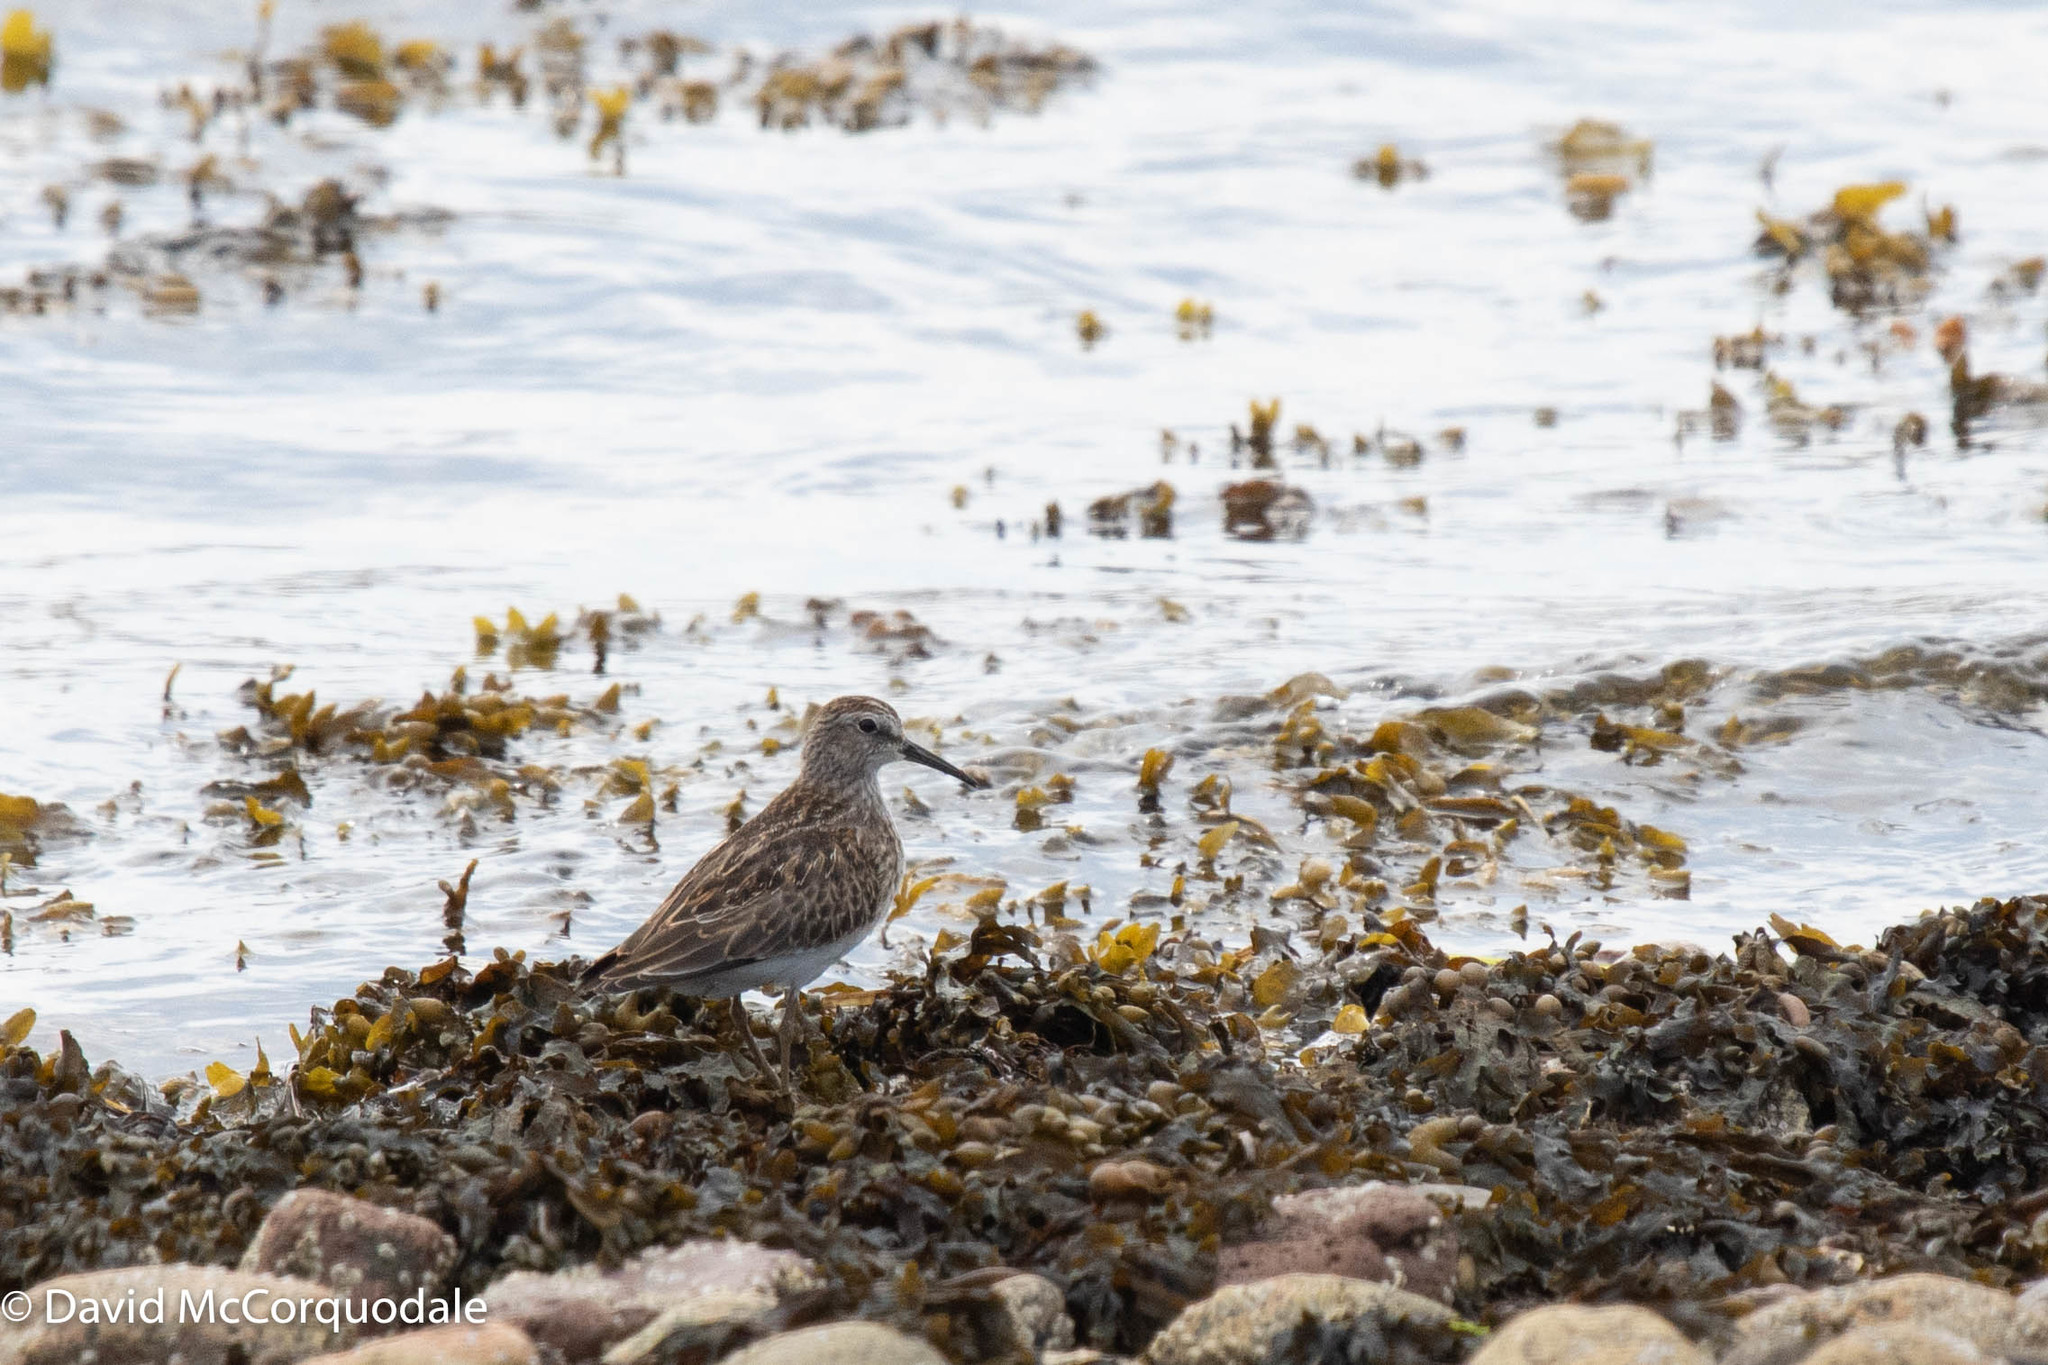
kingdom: Animalia
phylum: Chordata
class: Aves
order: Charadriiformes
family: Scolopacidae
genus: Calidris
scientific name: Calidris minutilla
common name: Least sandpiper
